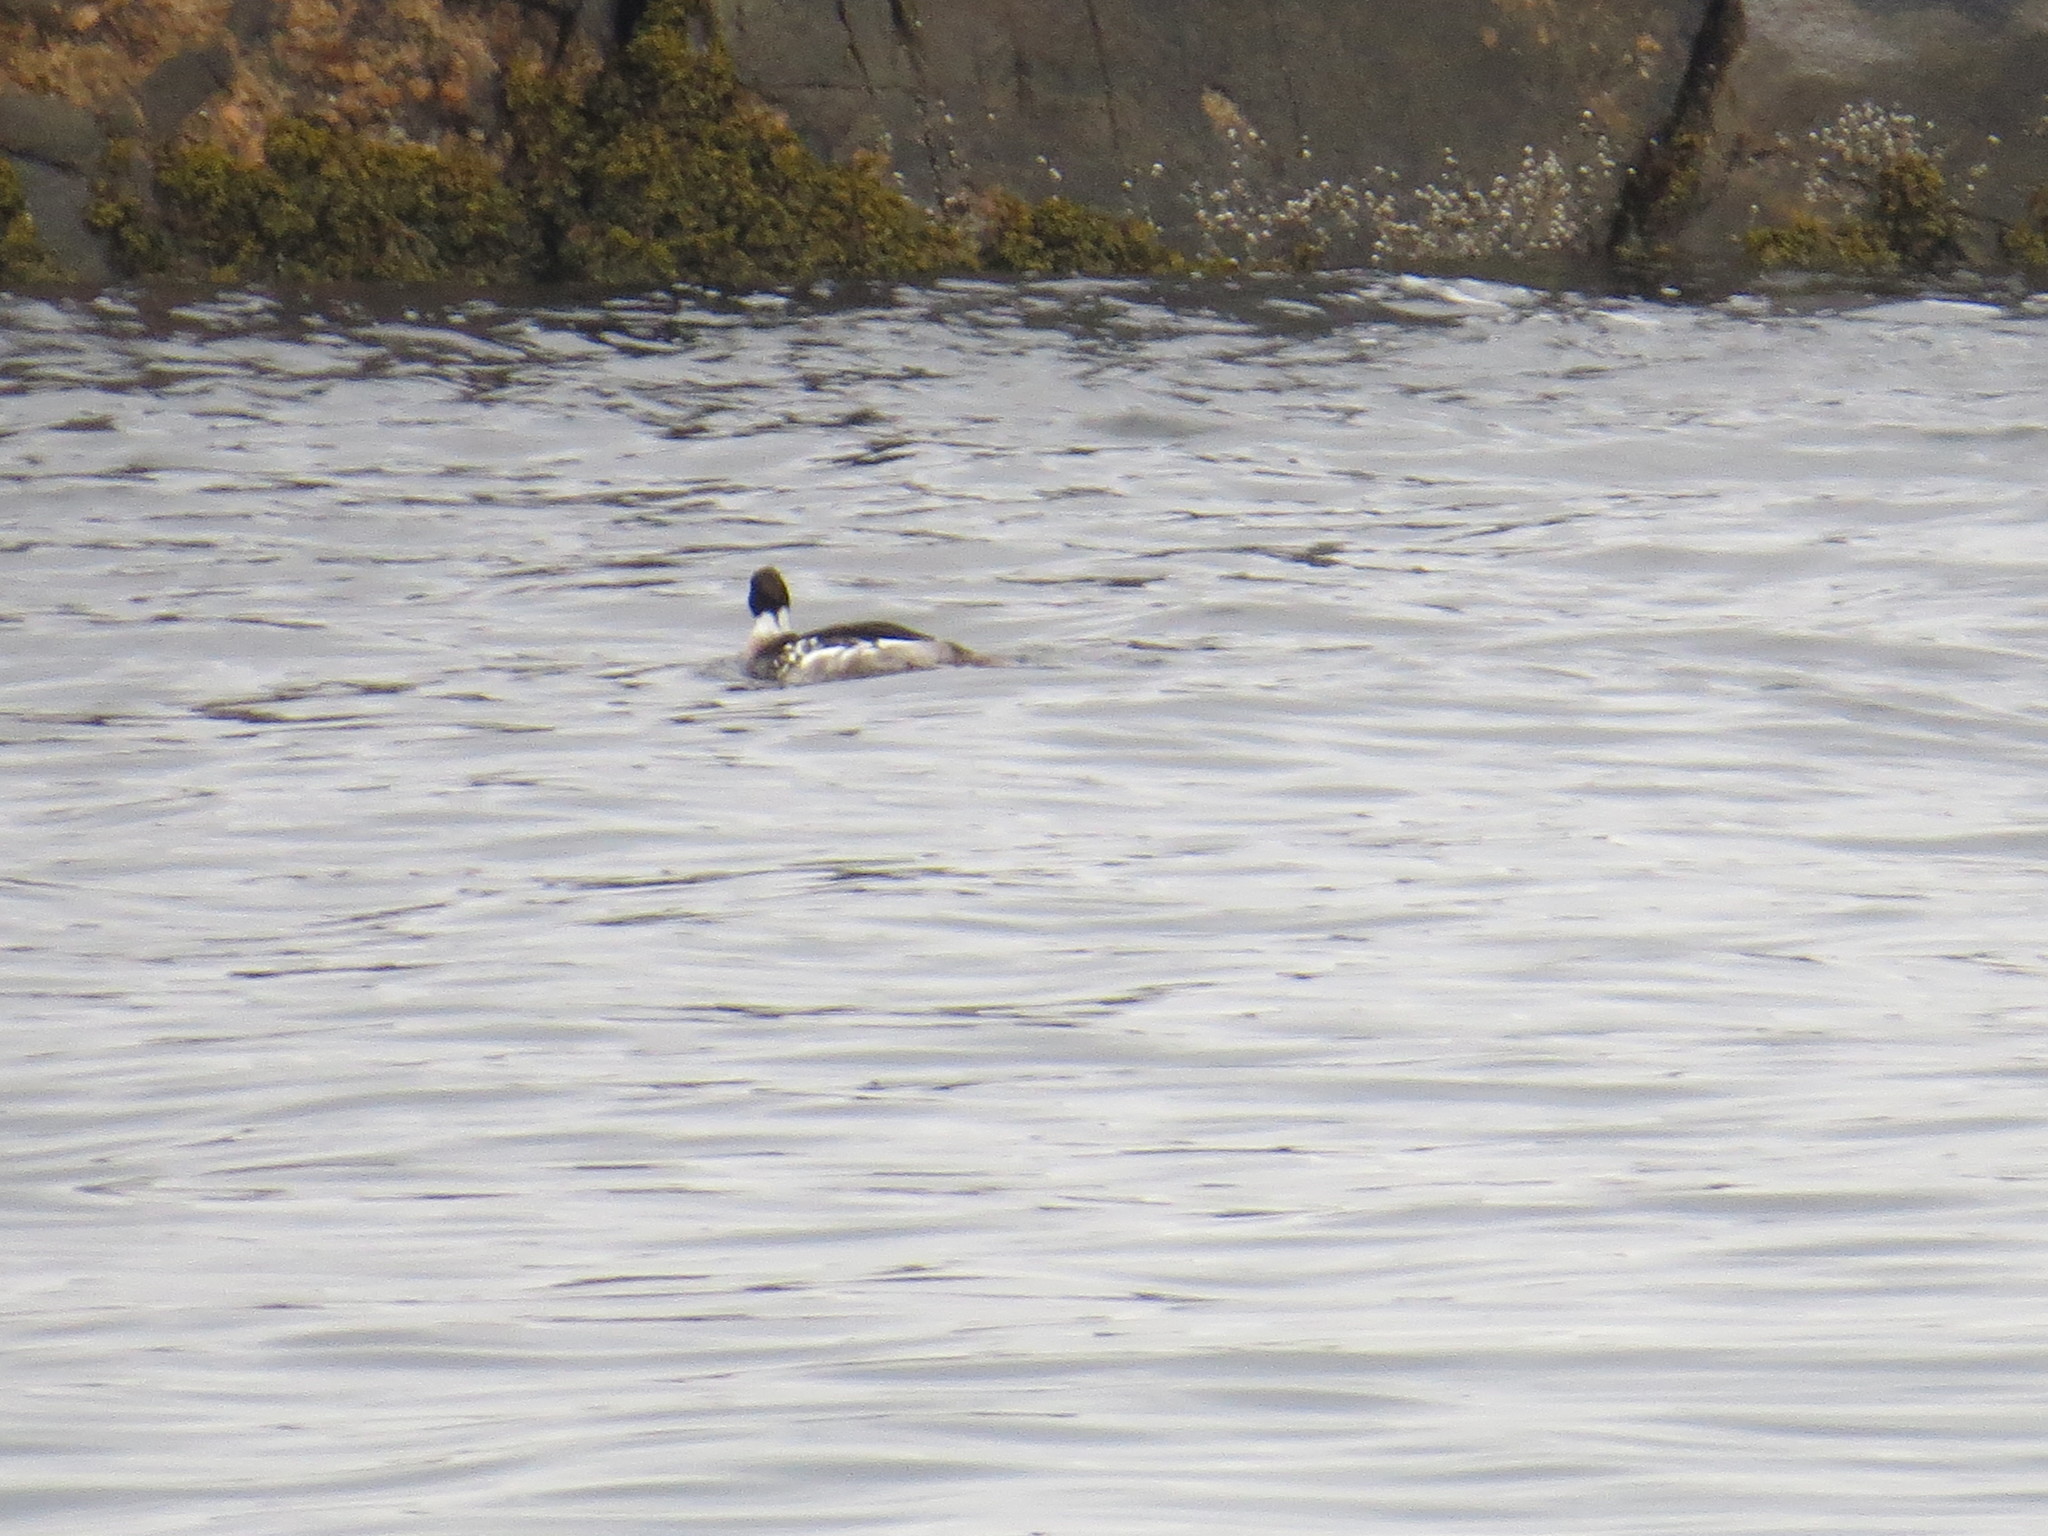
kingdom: Animalia
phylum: Chordata
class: Aves
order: Anseriformes
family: Anatidae
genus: Mergus
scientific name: Mergus serrator
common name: Red-breasted merganser
